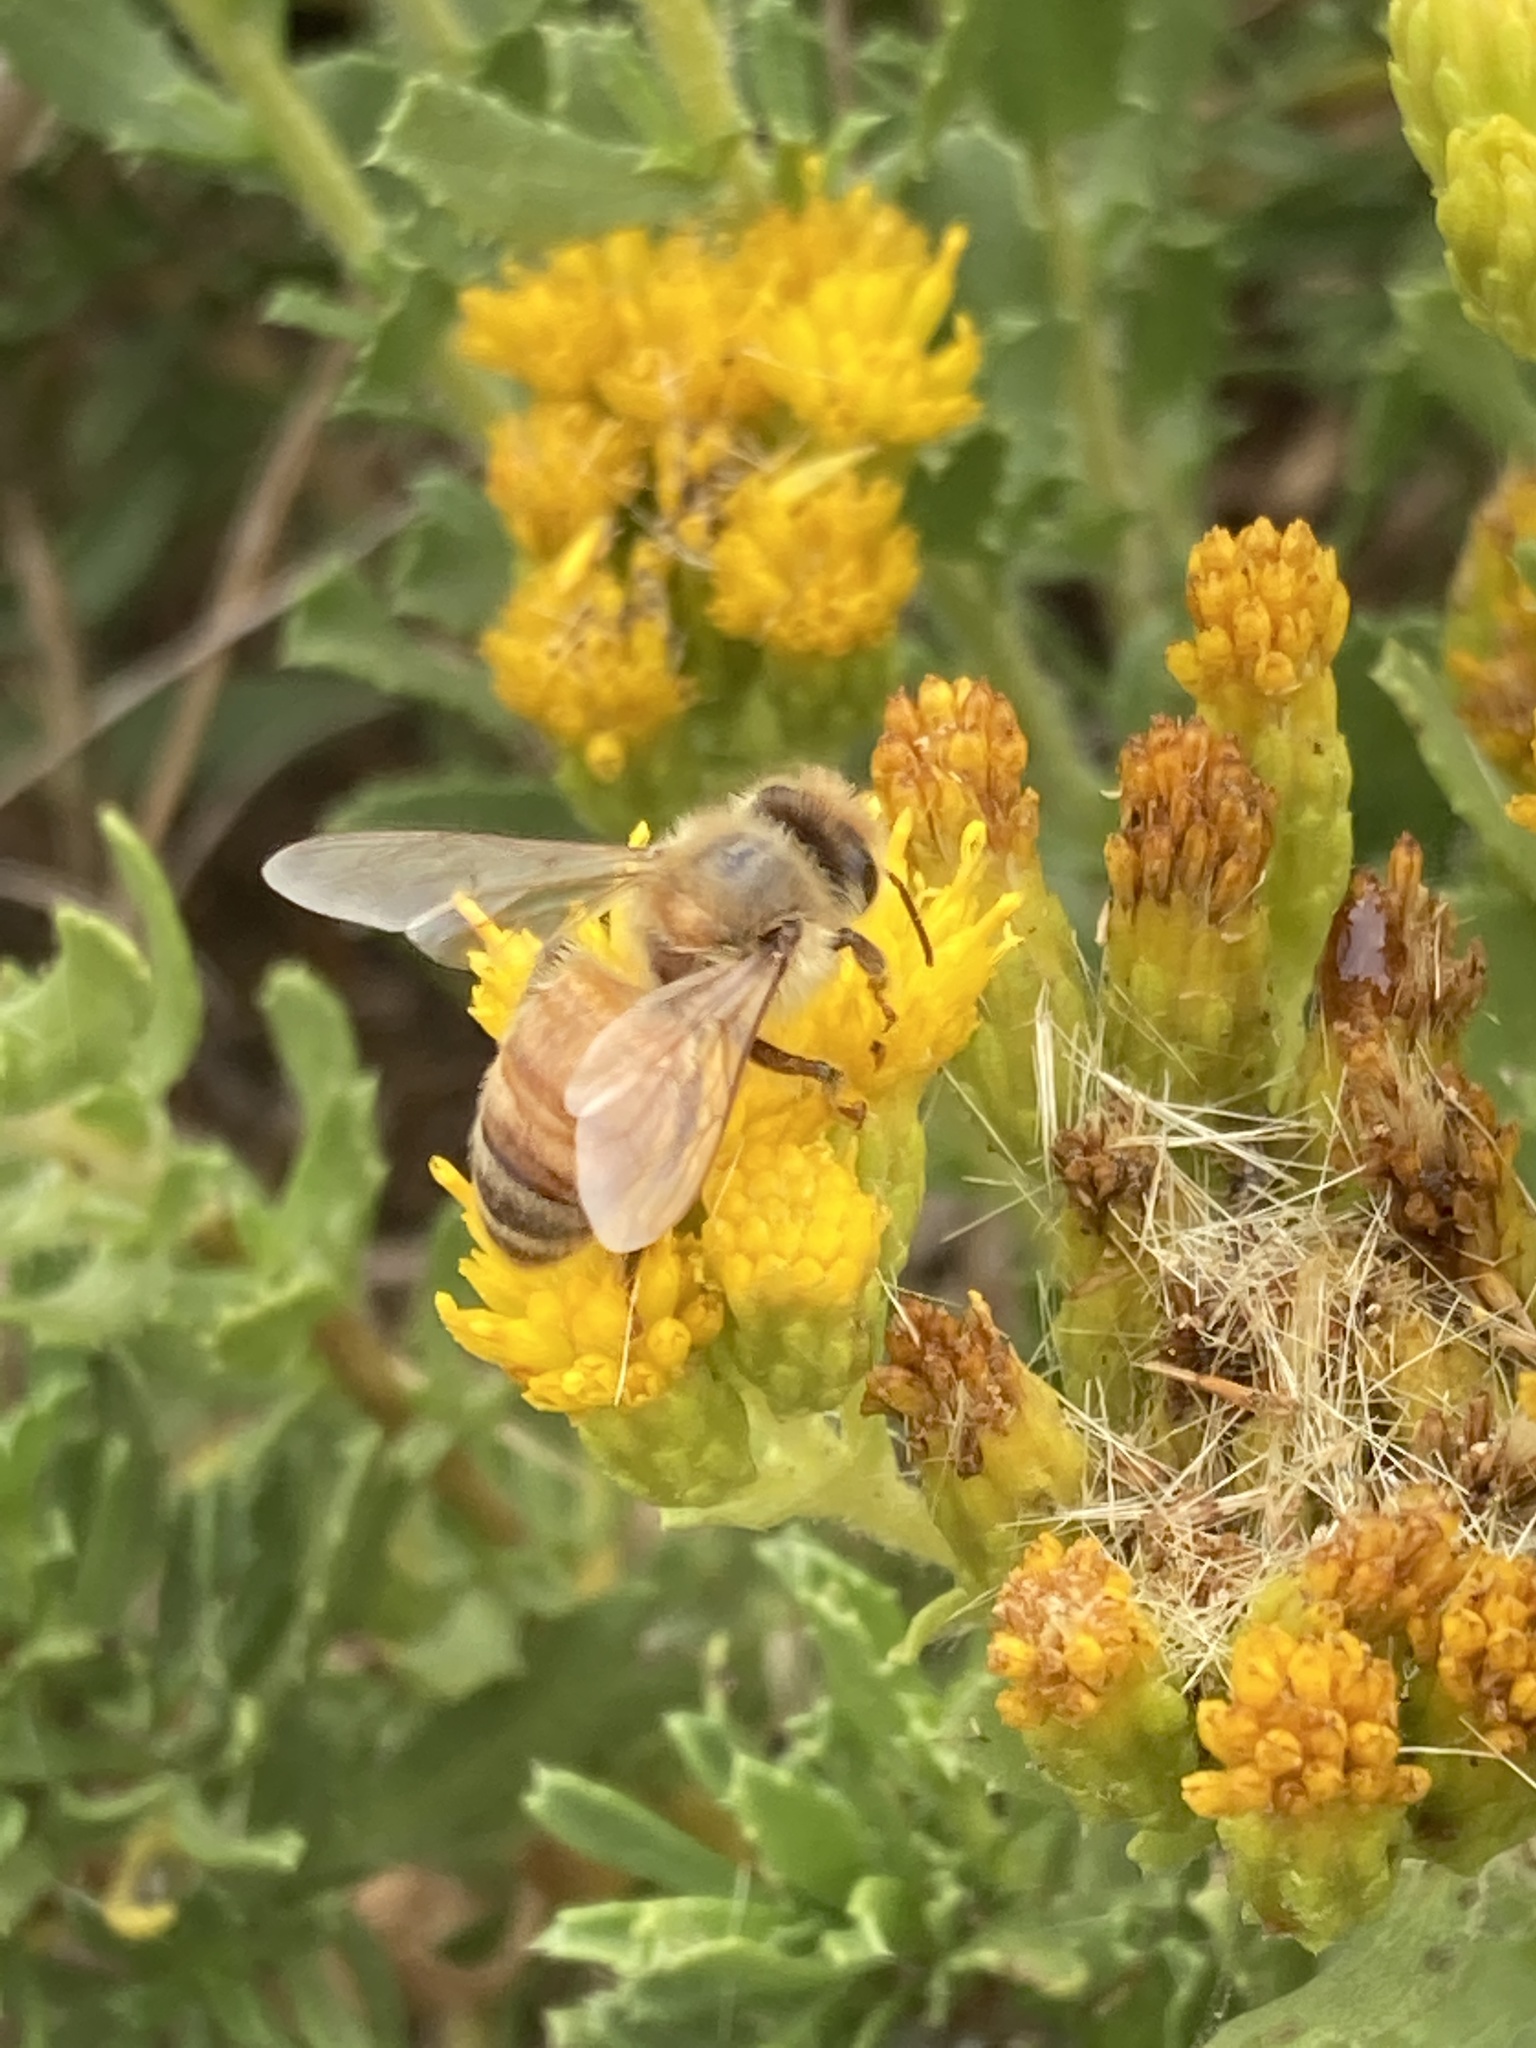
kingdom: Animalia
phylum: Arthropoda
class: Insecta
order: Hymenoptera
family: Apidae
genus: Apis
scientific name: Apis mellifera
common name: Honey bee
